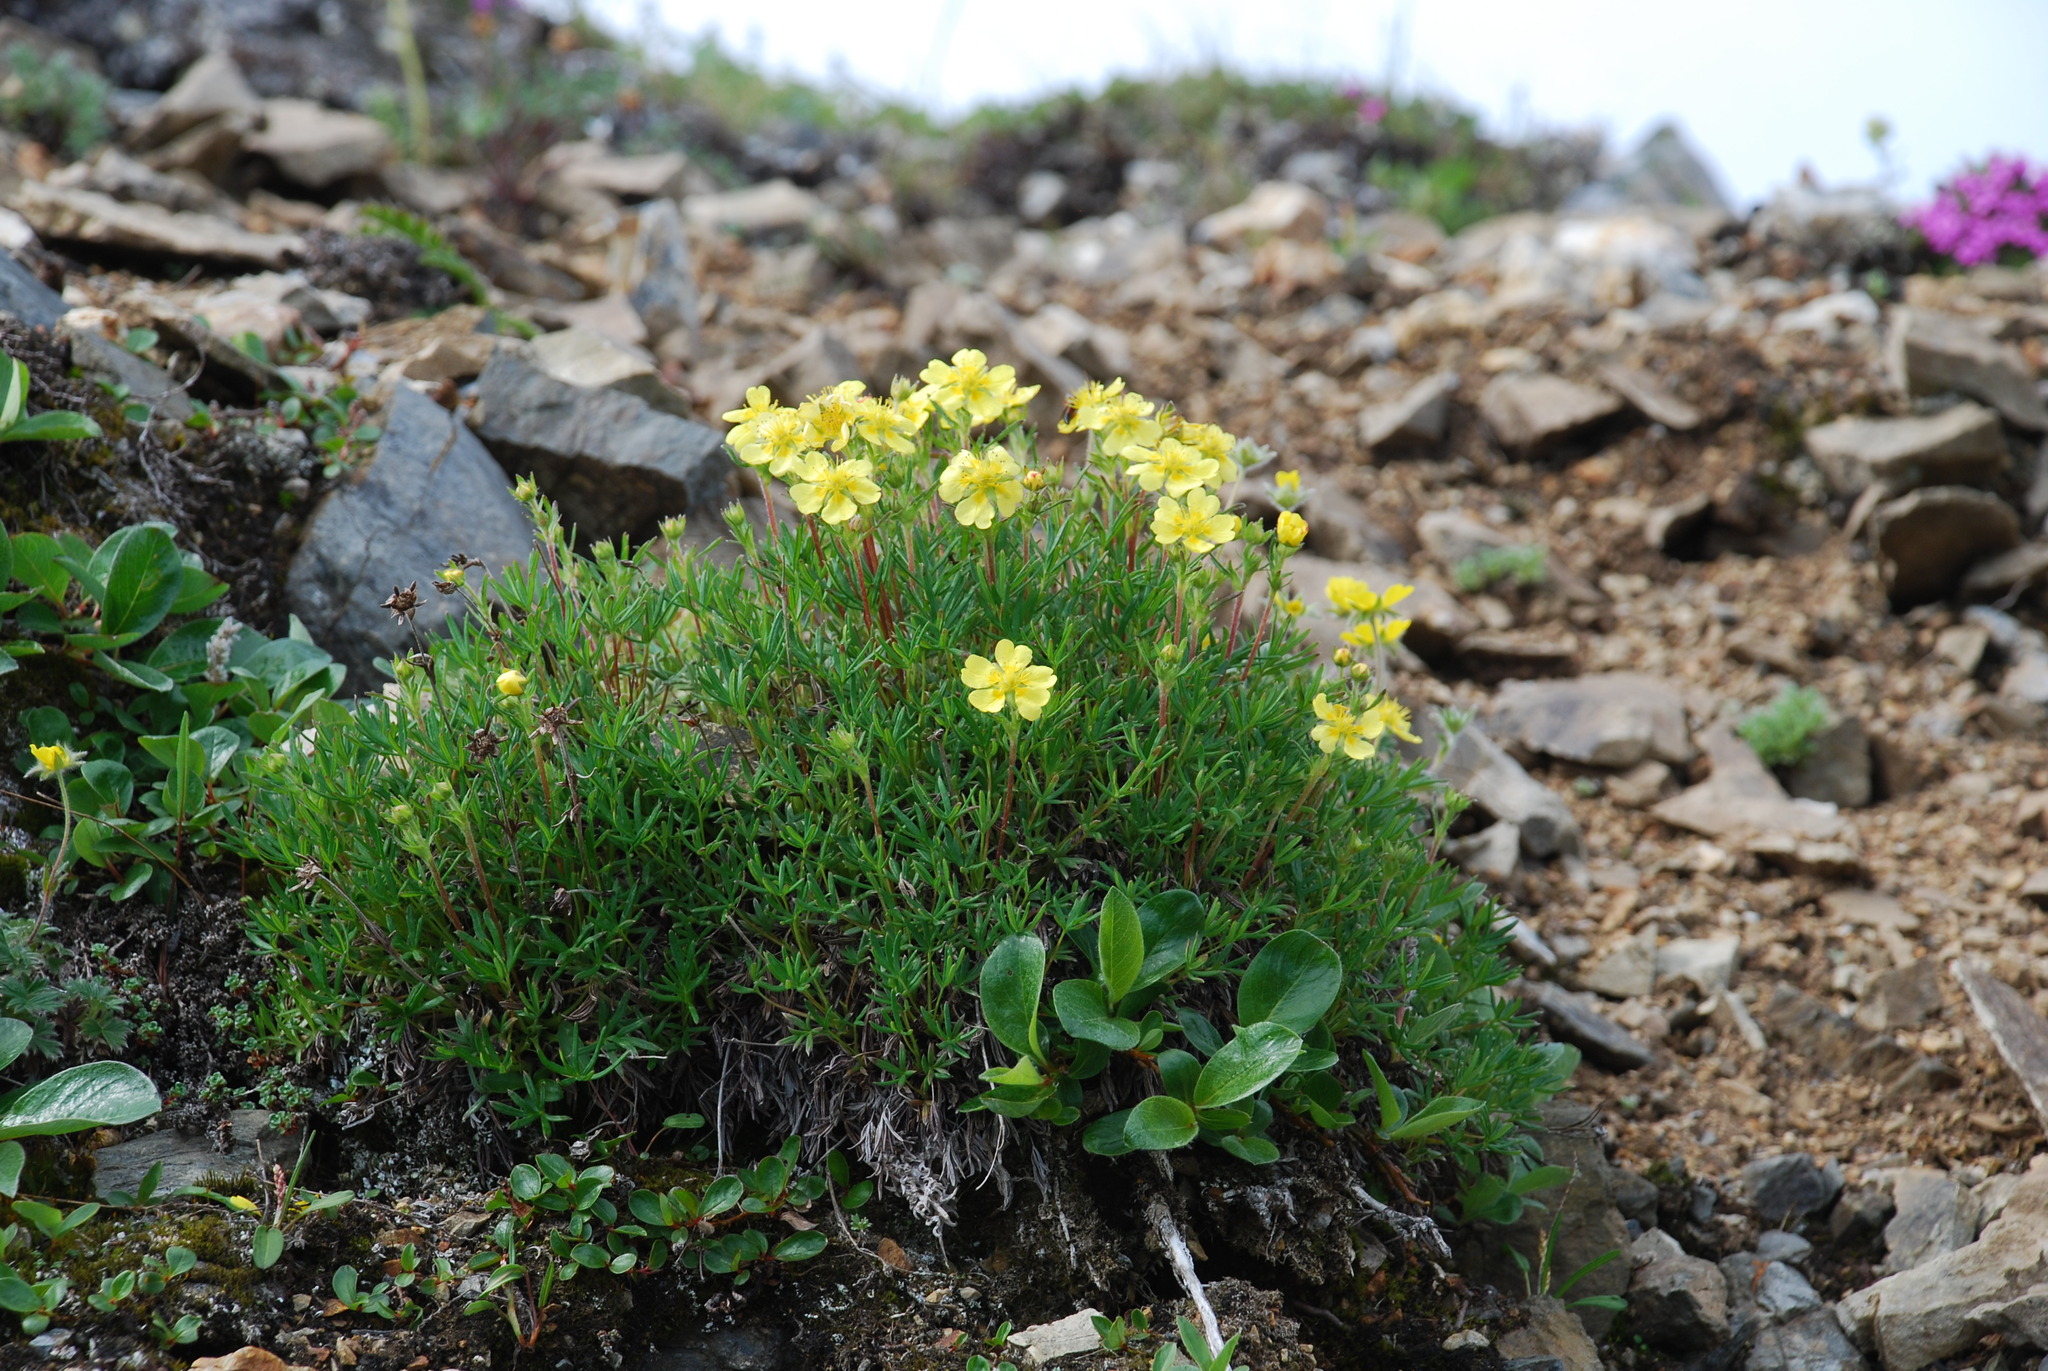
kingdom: Plantae
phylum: Tracheophyta
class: Magnoliopsida
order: Rosales
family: Rosaceae
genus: Potentilla
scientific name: Potentilla biflora
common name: Two-flowered cinquefoil
